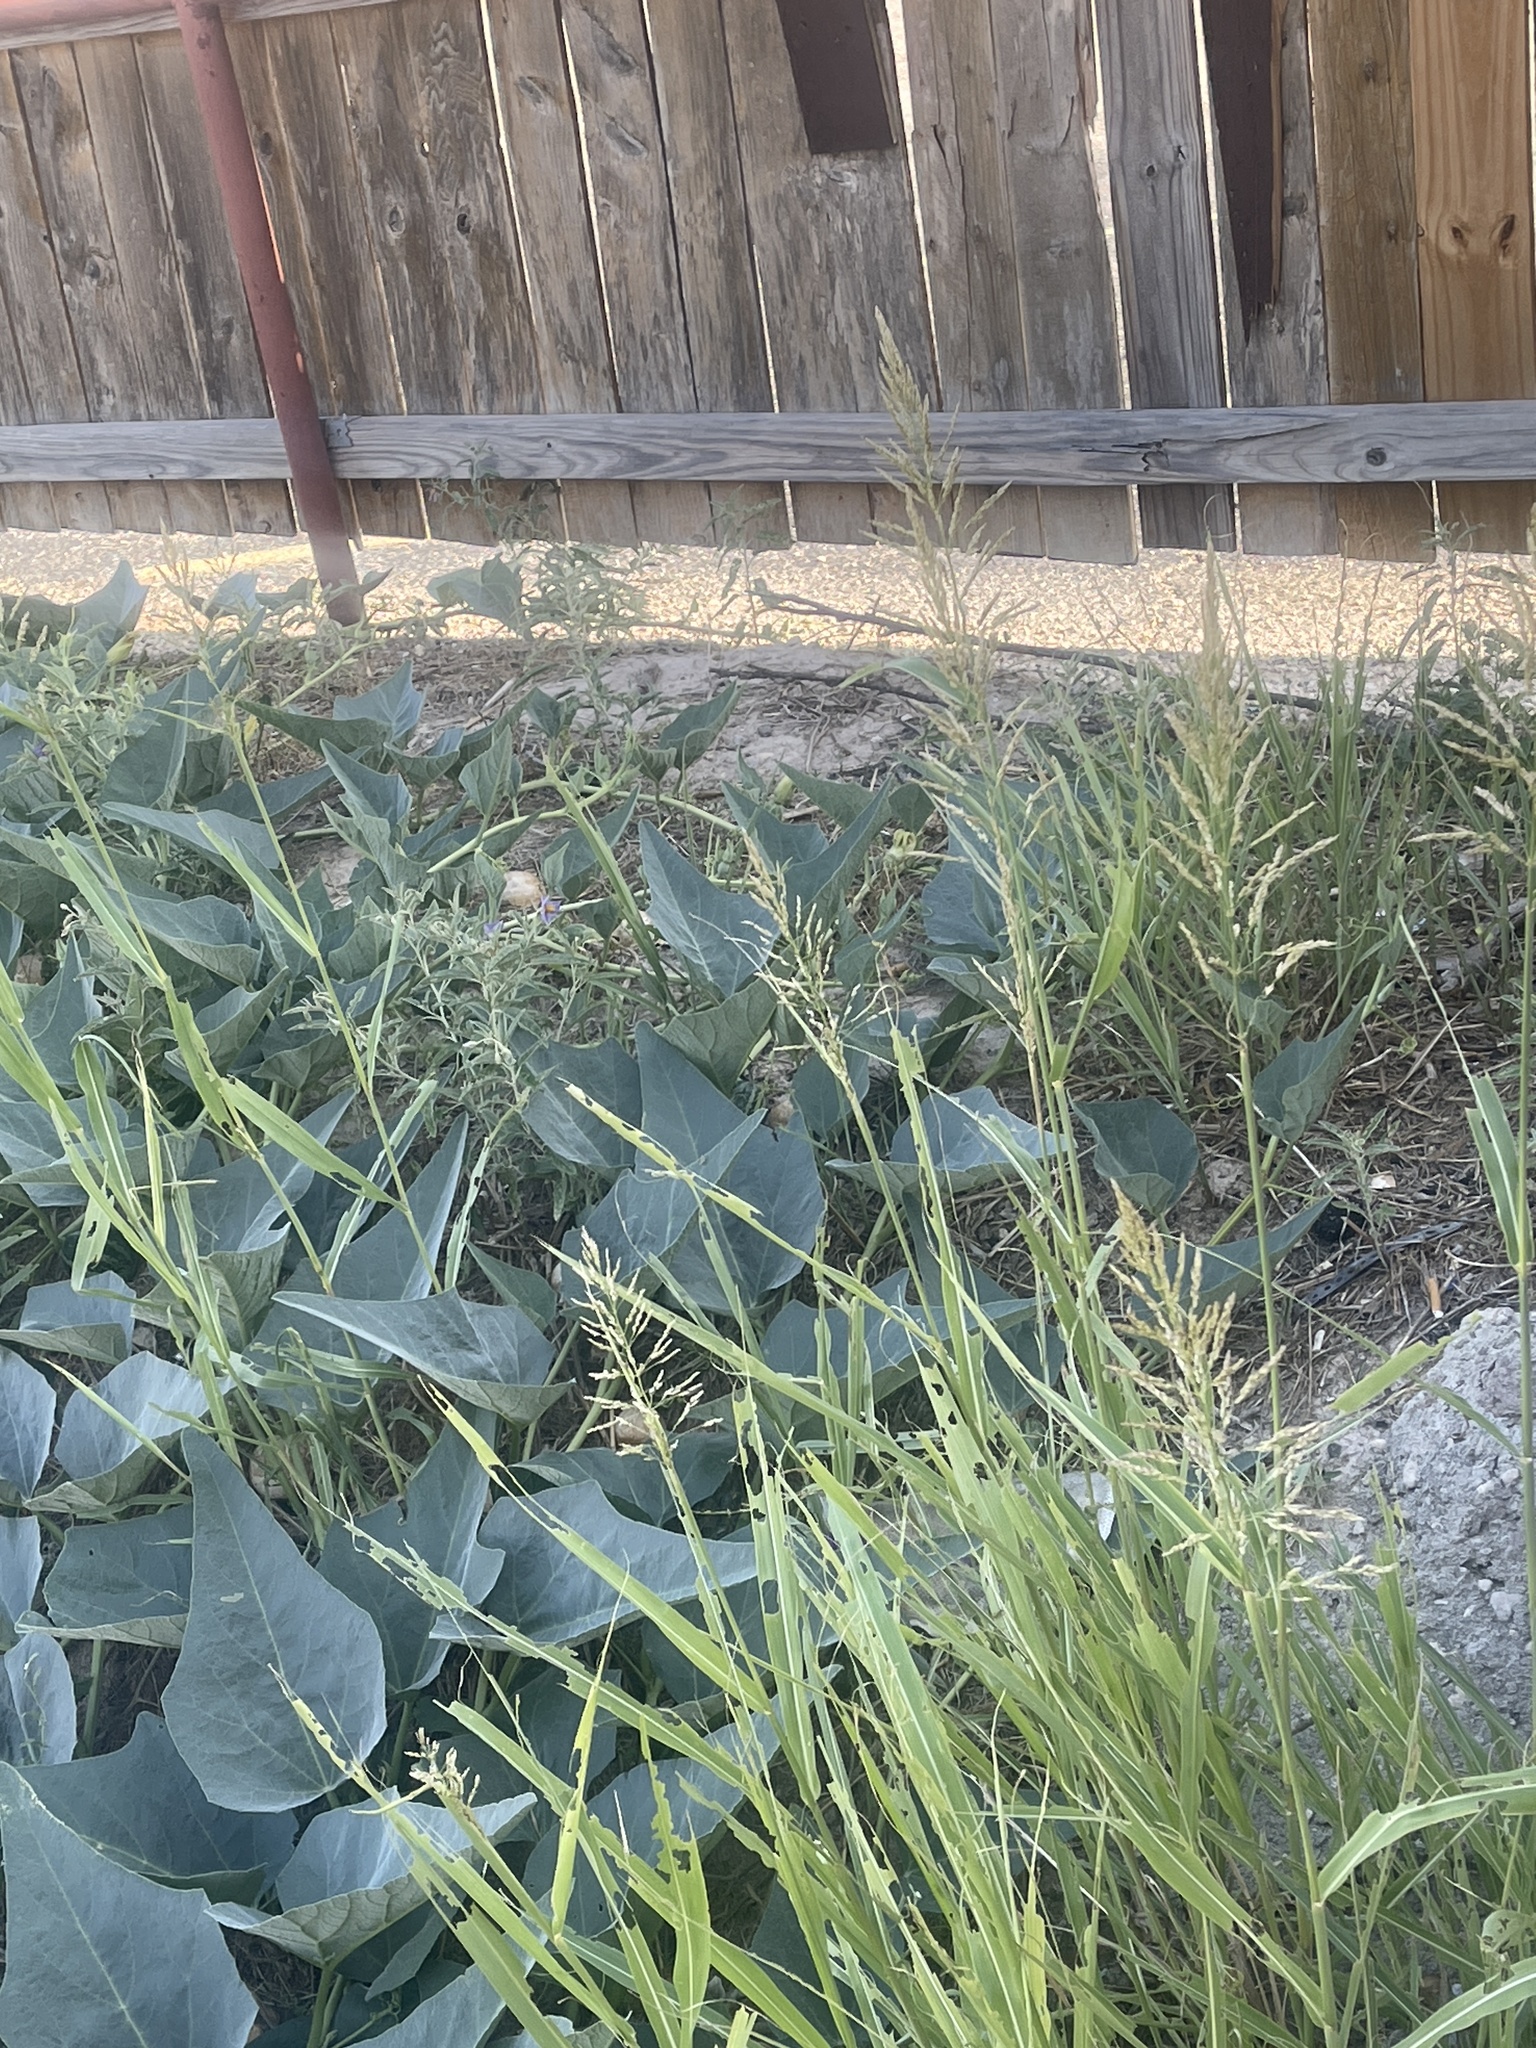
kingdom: Plantae
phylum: Tracheophyta
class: Liliopsida
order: Poales
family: Poaceae
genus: Sorghum
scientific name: Sorghum halepense
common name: Johnson-grass
